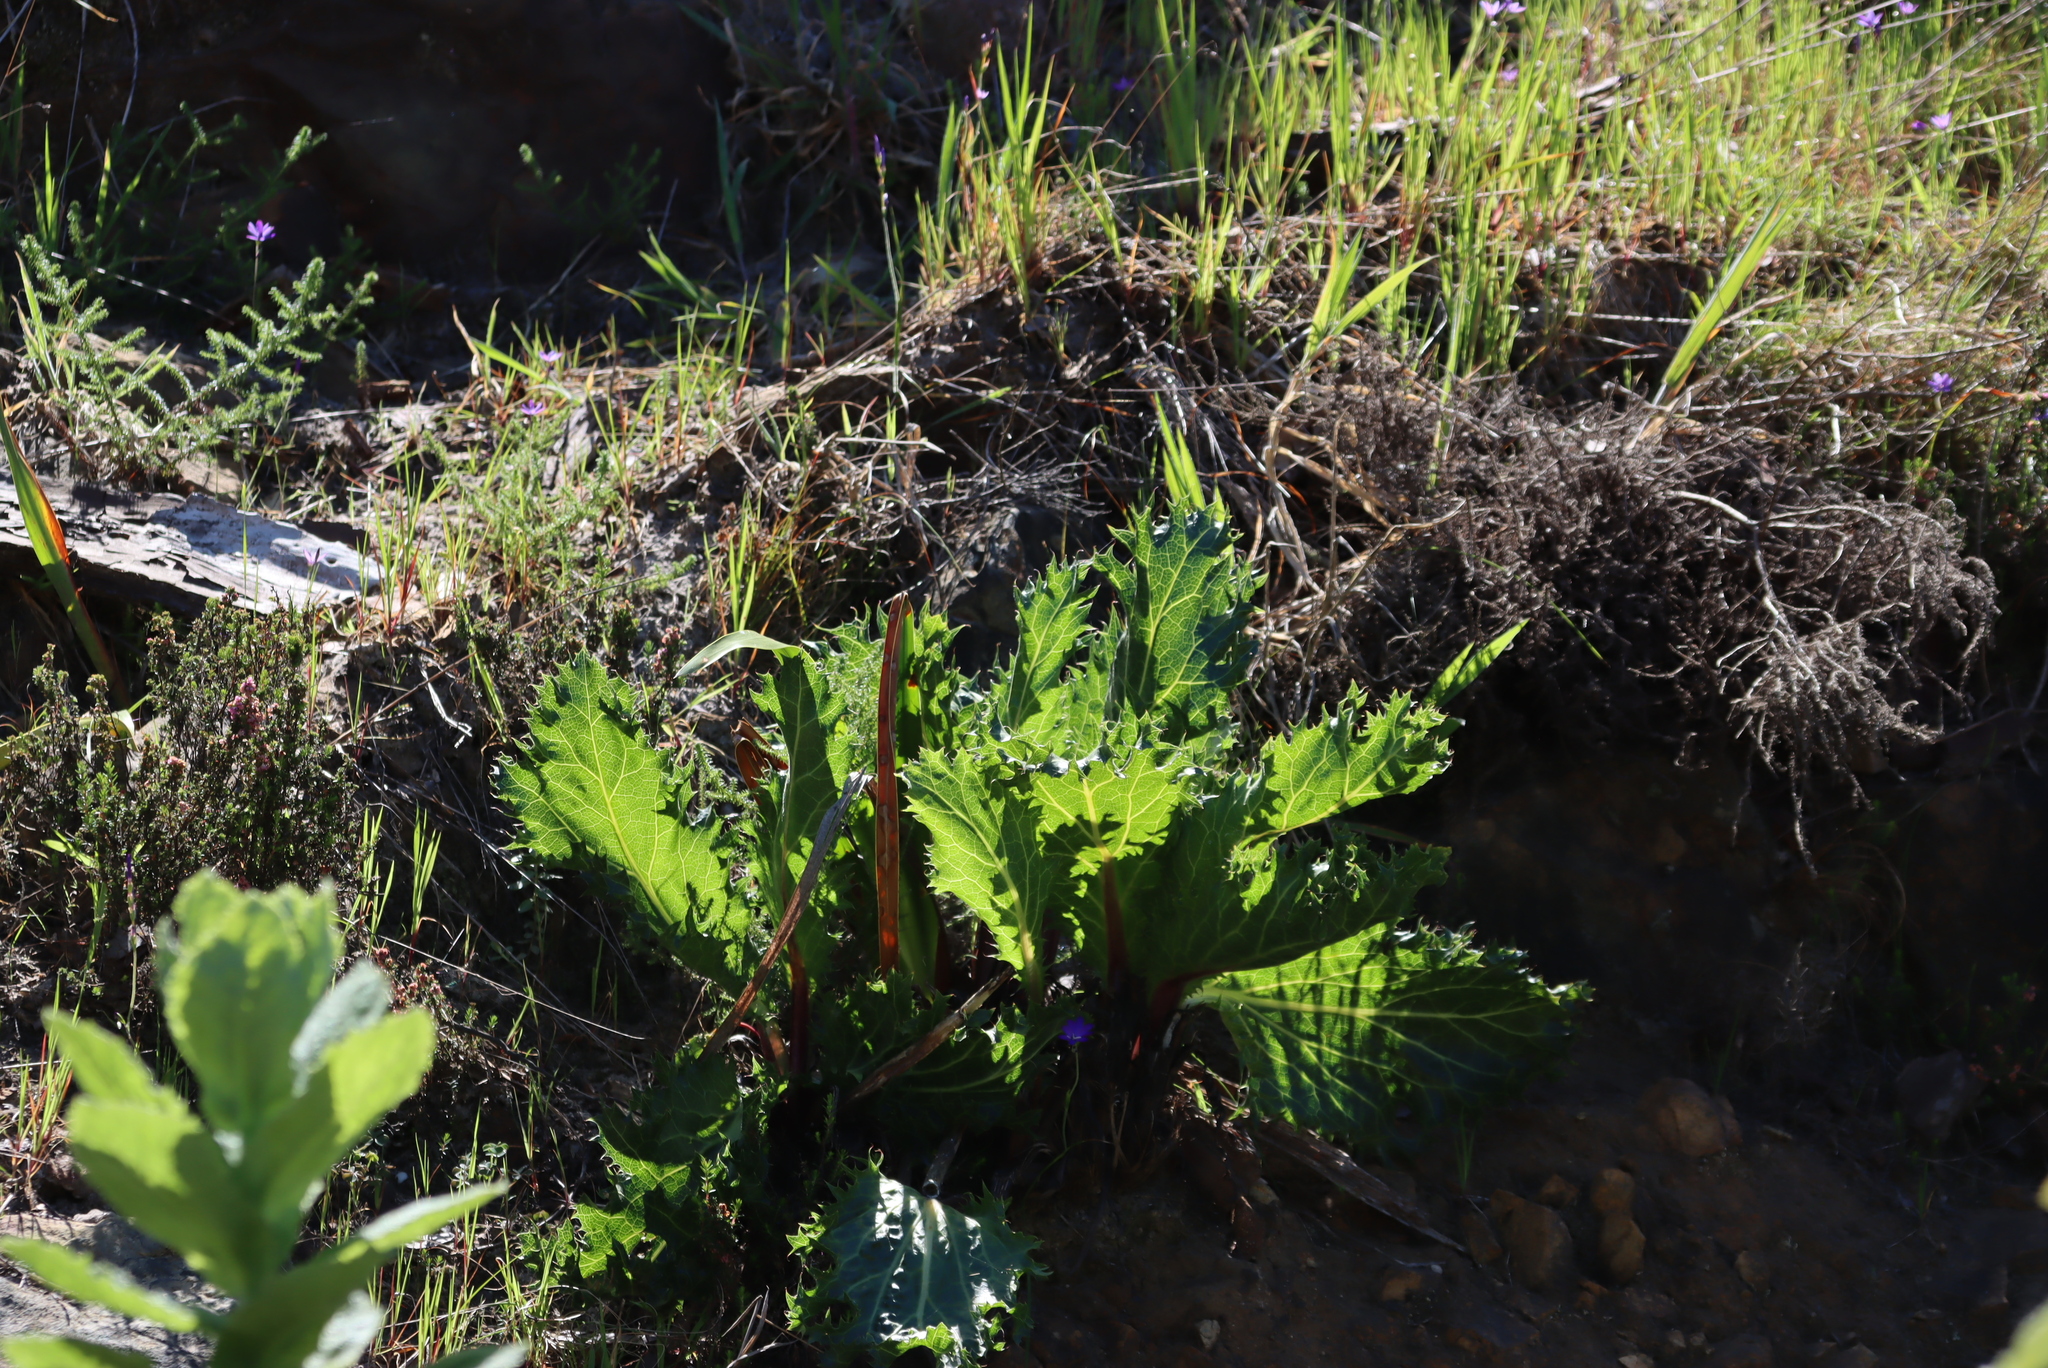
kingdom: Plantae
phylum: Tracheophyta
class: Magnoliopsida
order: Apiales
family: Apiaceae
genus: Lichtensteinia
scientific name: Lichtensteinia lacera
